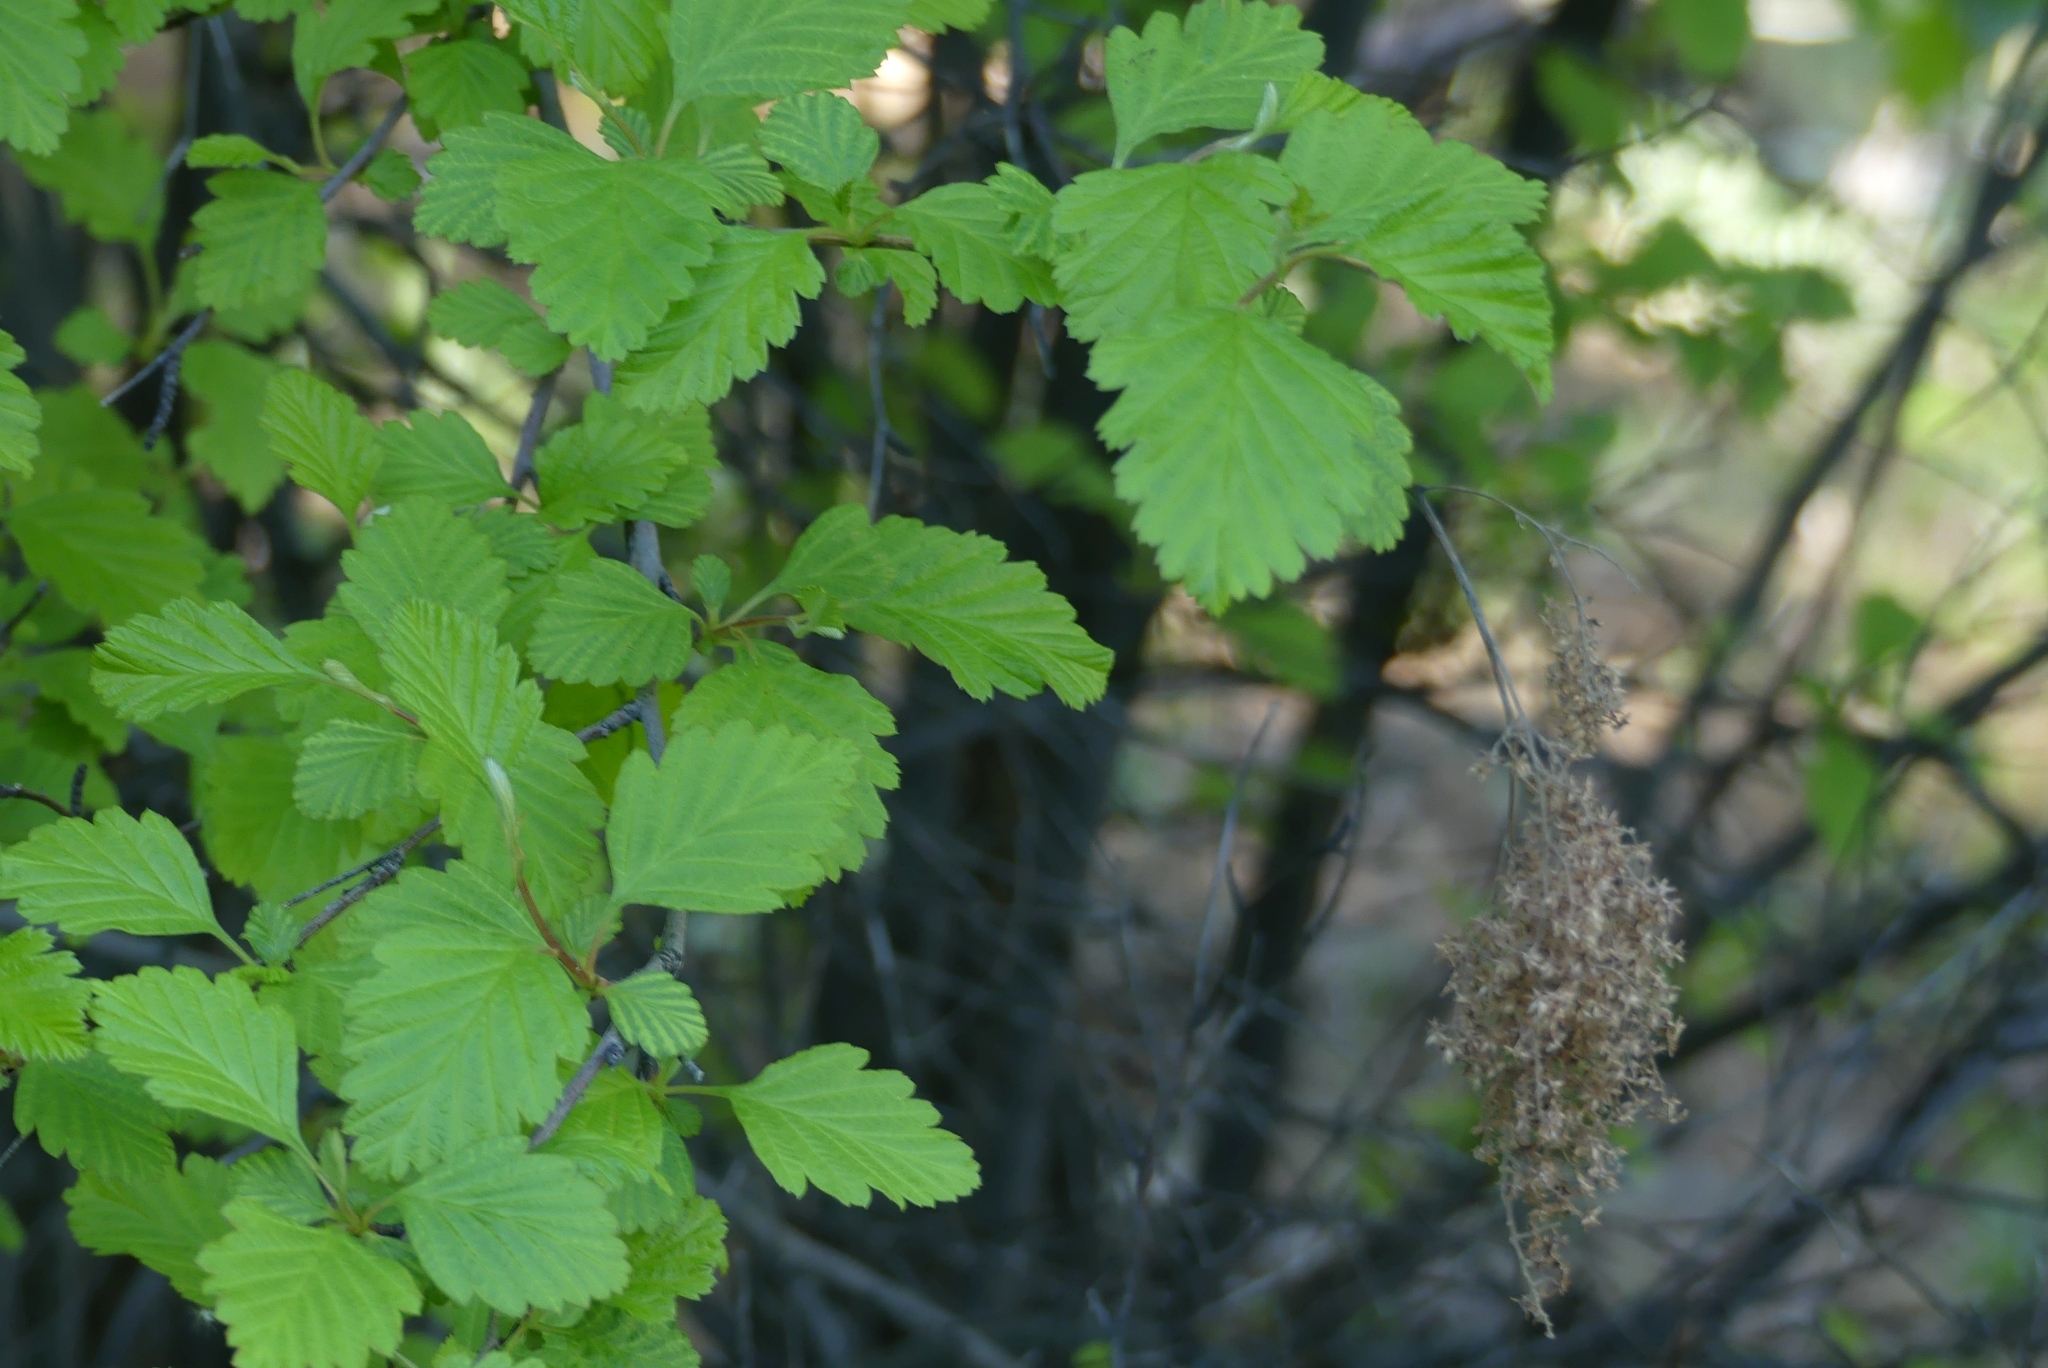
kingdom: Plantae
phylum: Tracheophyta
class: Magnoliopsida
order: Rosales
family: Rosaceae
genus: Holodiscus
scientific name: Holodiscus discolor
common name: Oceanspray
